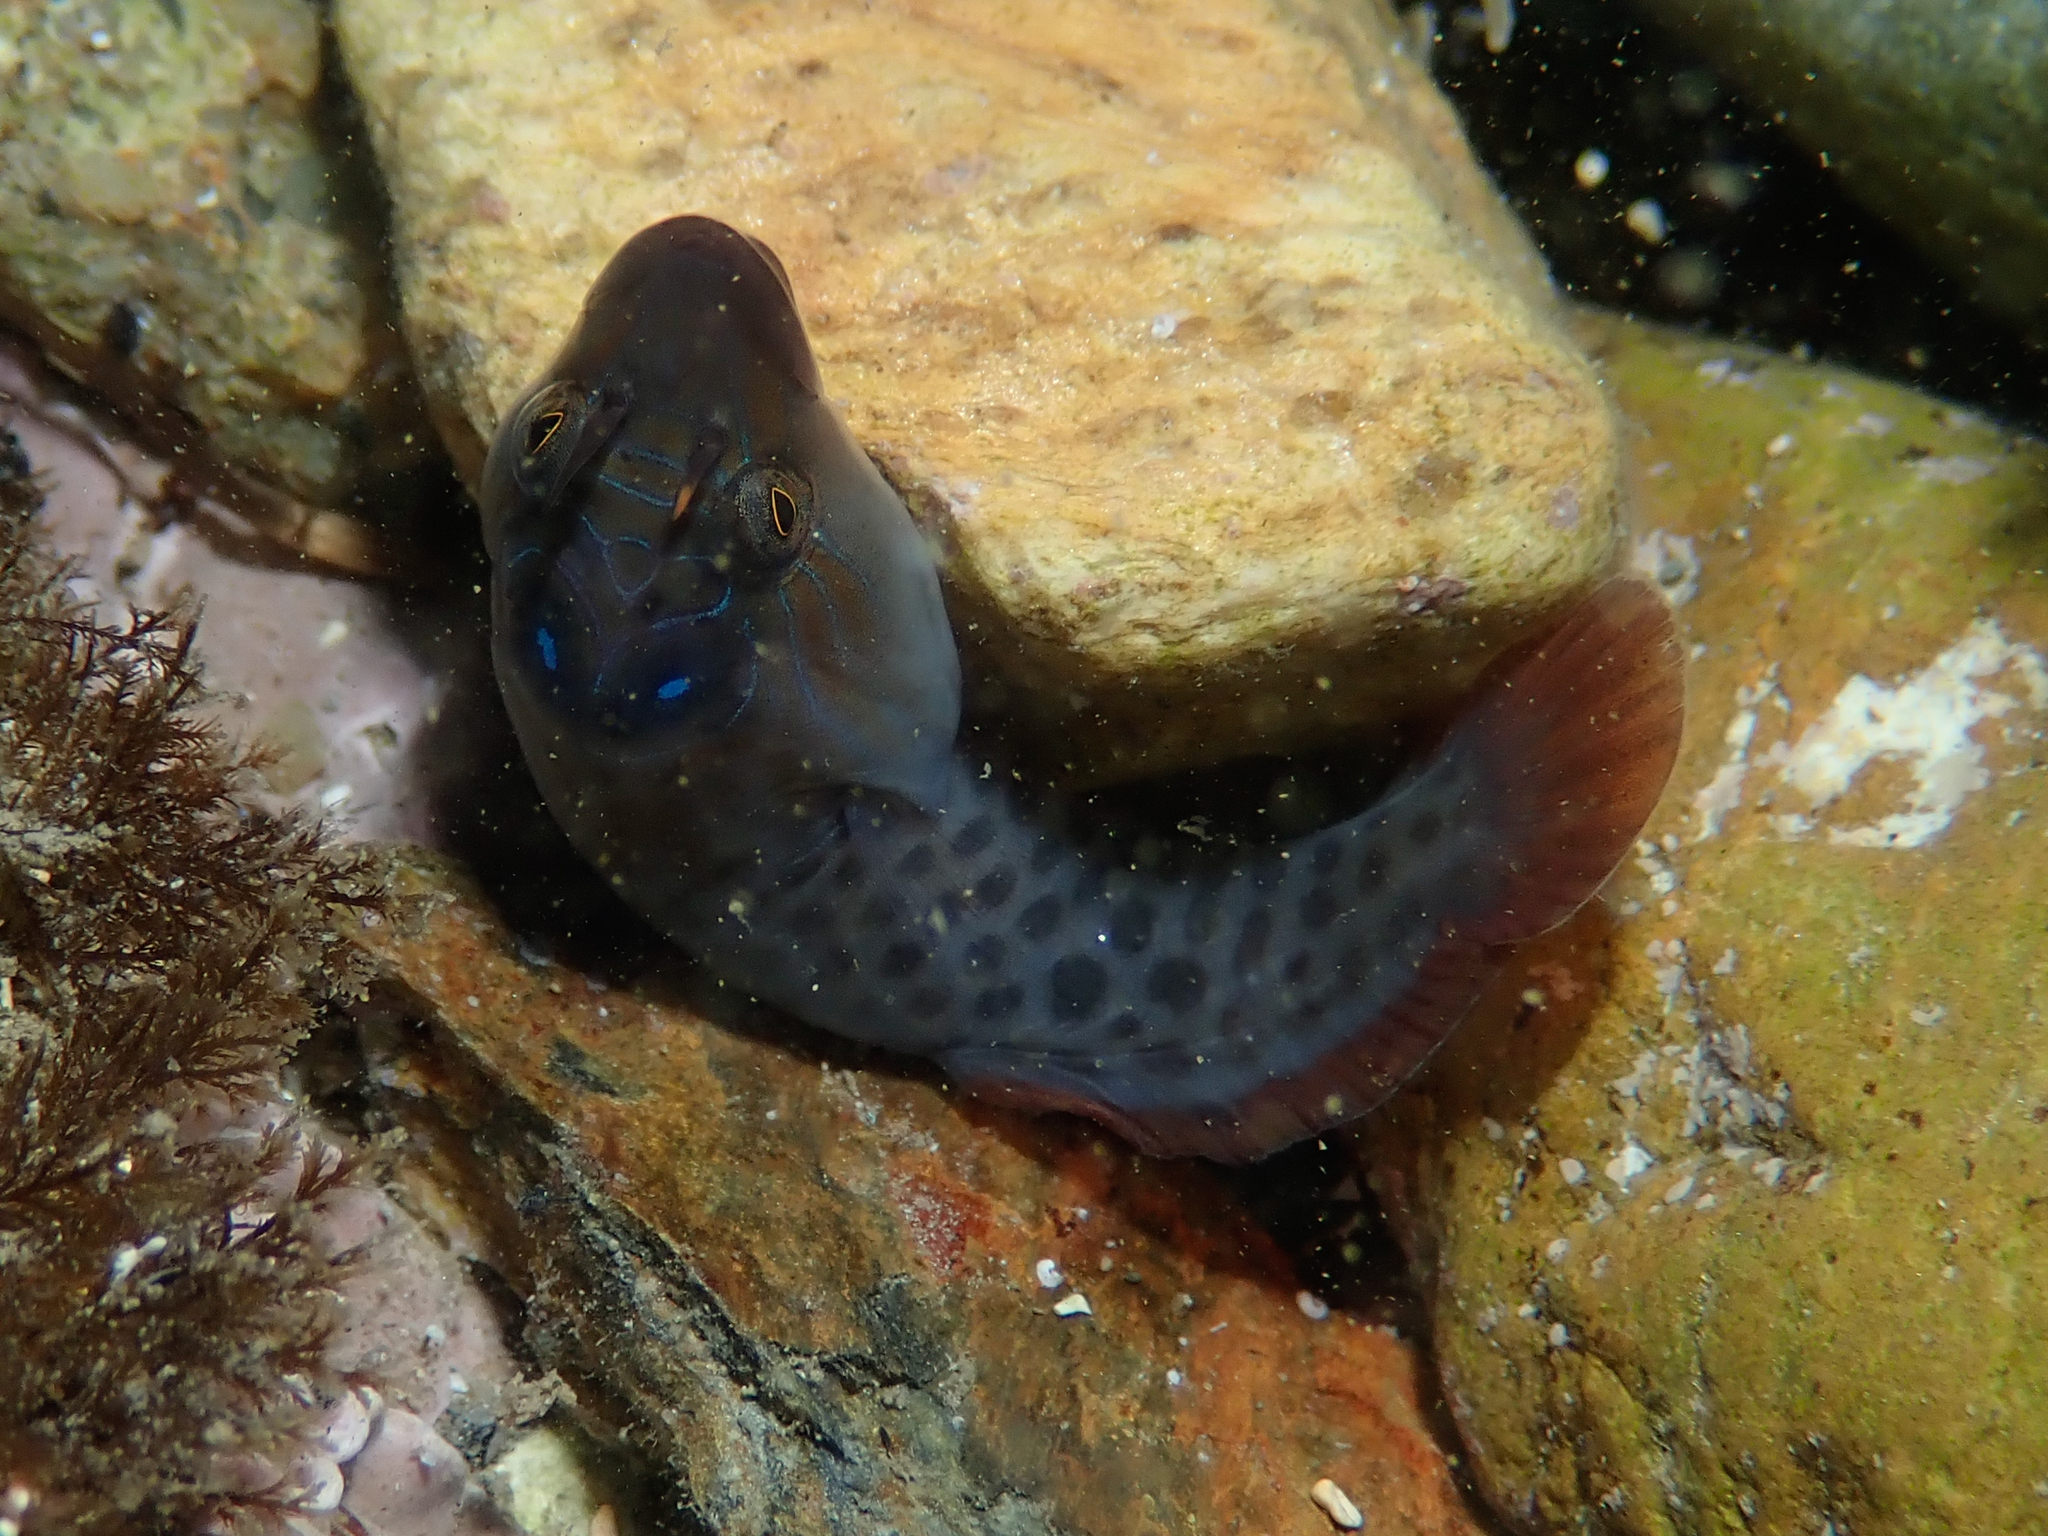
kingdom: Animalia
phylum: Chordata
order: Gobiesociformes
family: Gobiesocidae
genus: Lepadogaster
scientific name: Lepadogaster lepadogaster
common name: Cornish sucker
